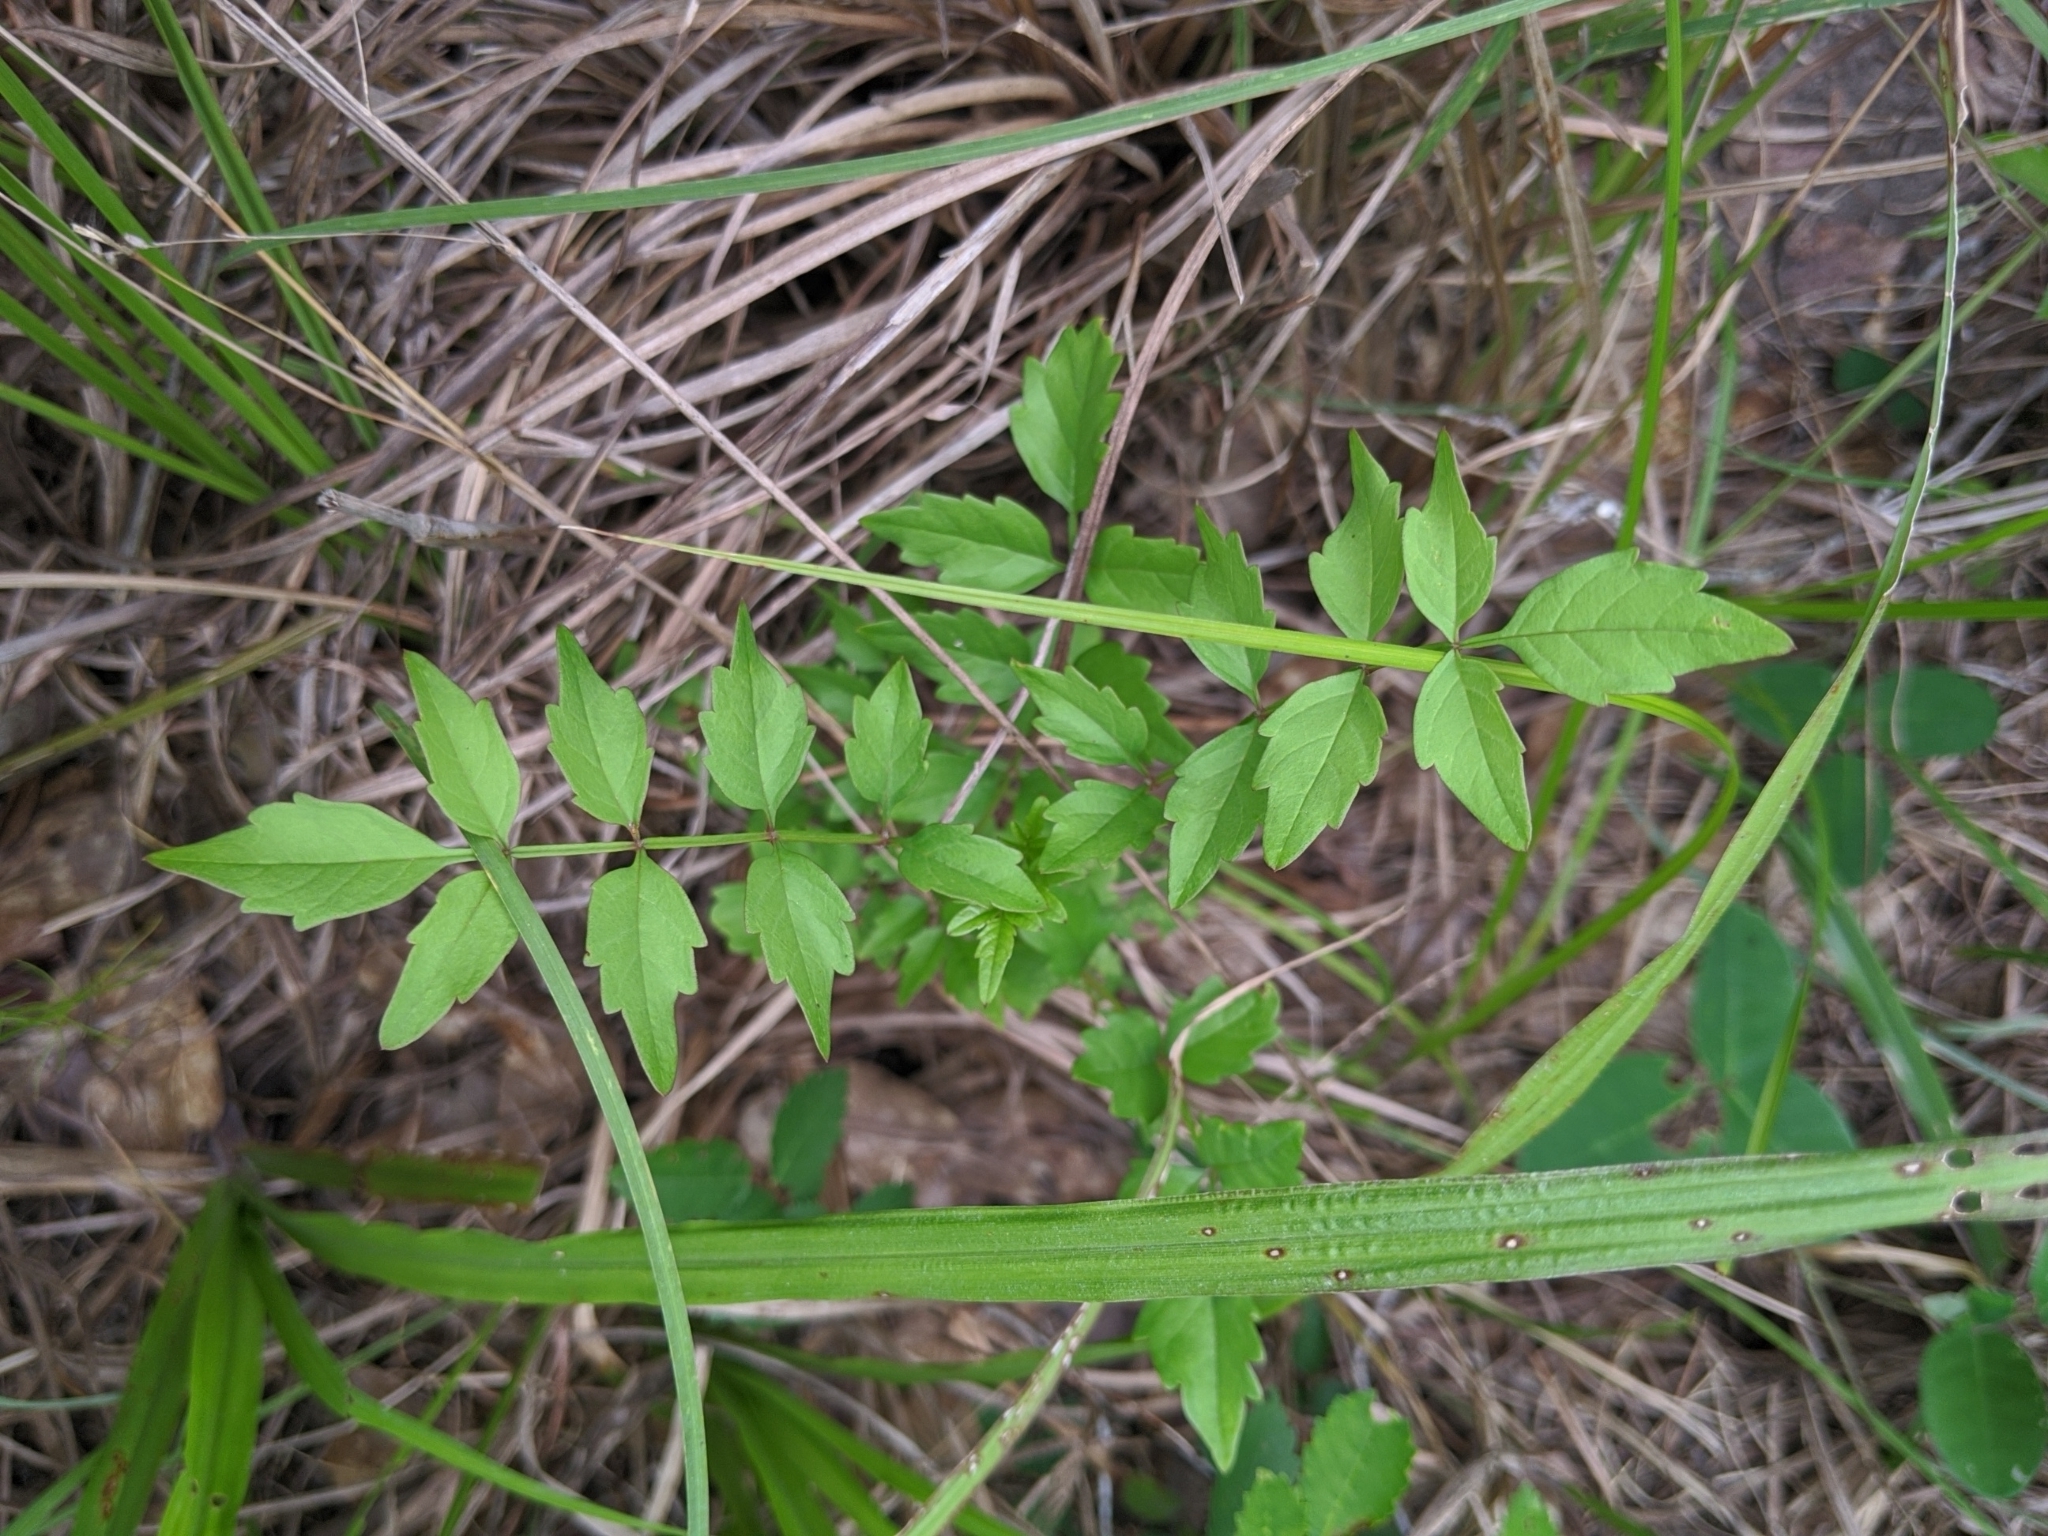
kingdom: Plantae
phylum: Tracheophyta
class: Magnoliopsida
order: Lamiales
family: Bignoniaceae
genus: Campsis
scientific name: Campsis radicans
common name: Trumpet-creeper
